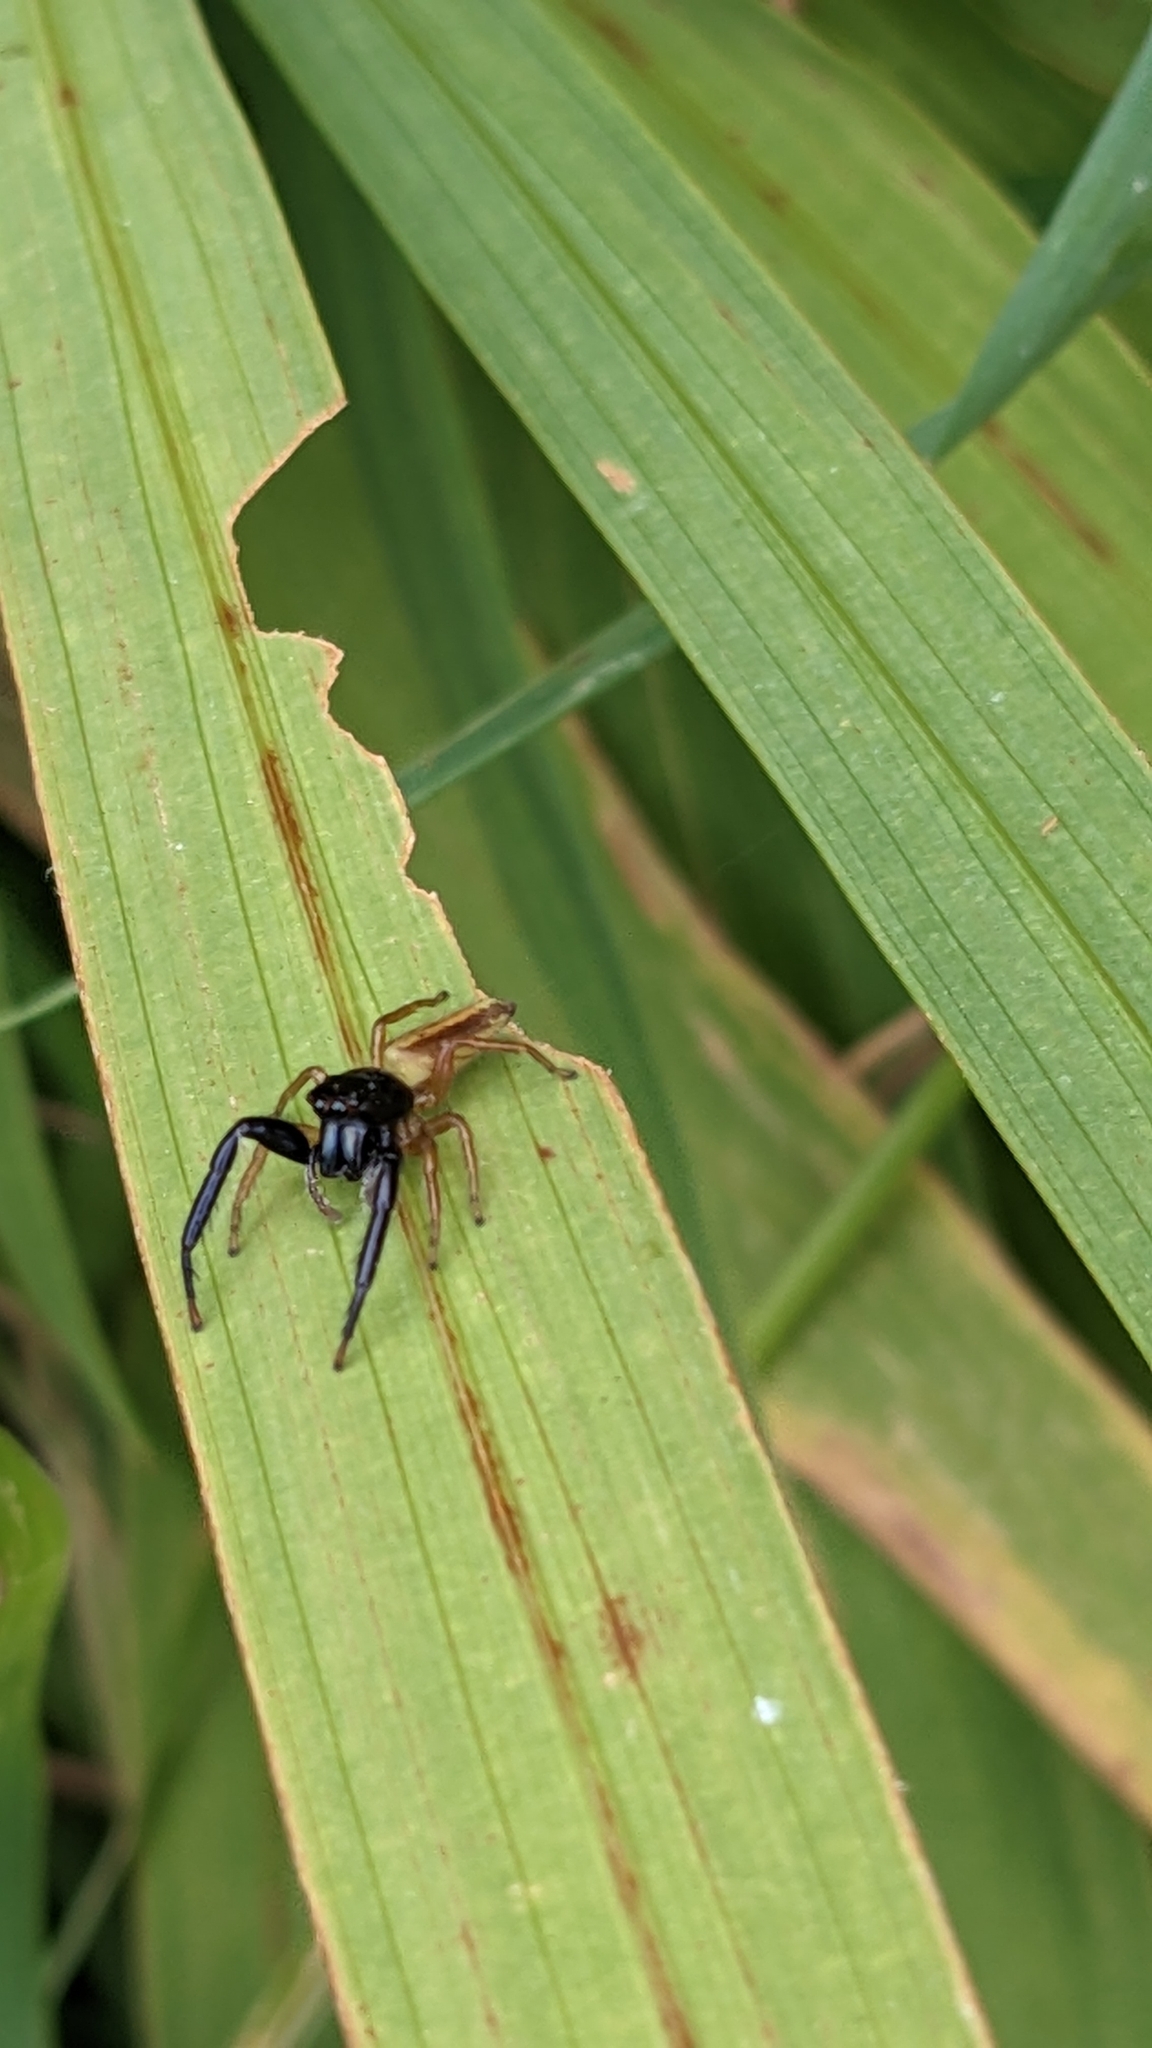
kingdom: Animalia
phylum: Arthropoda
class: Arachnida
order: Araneae
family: Salticidae
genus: Trite
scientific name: Trite planiceps
